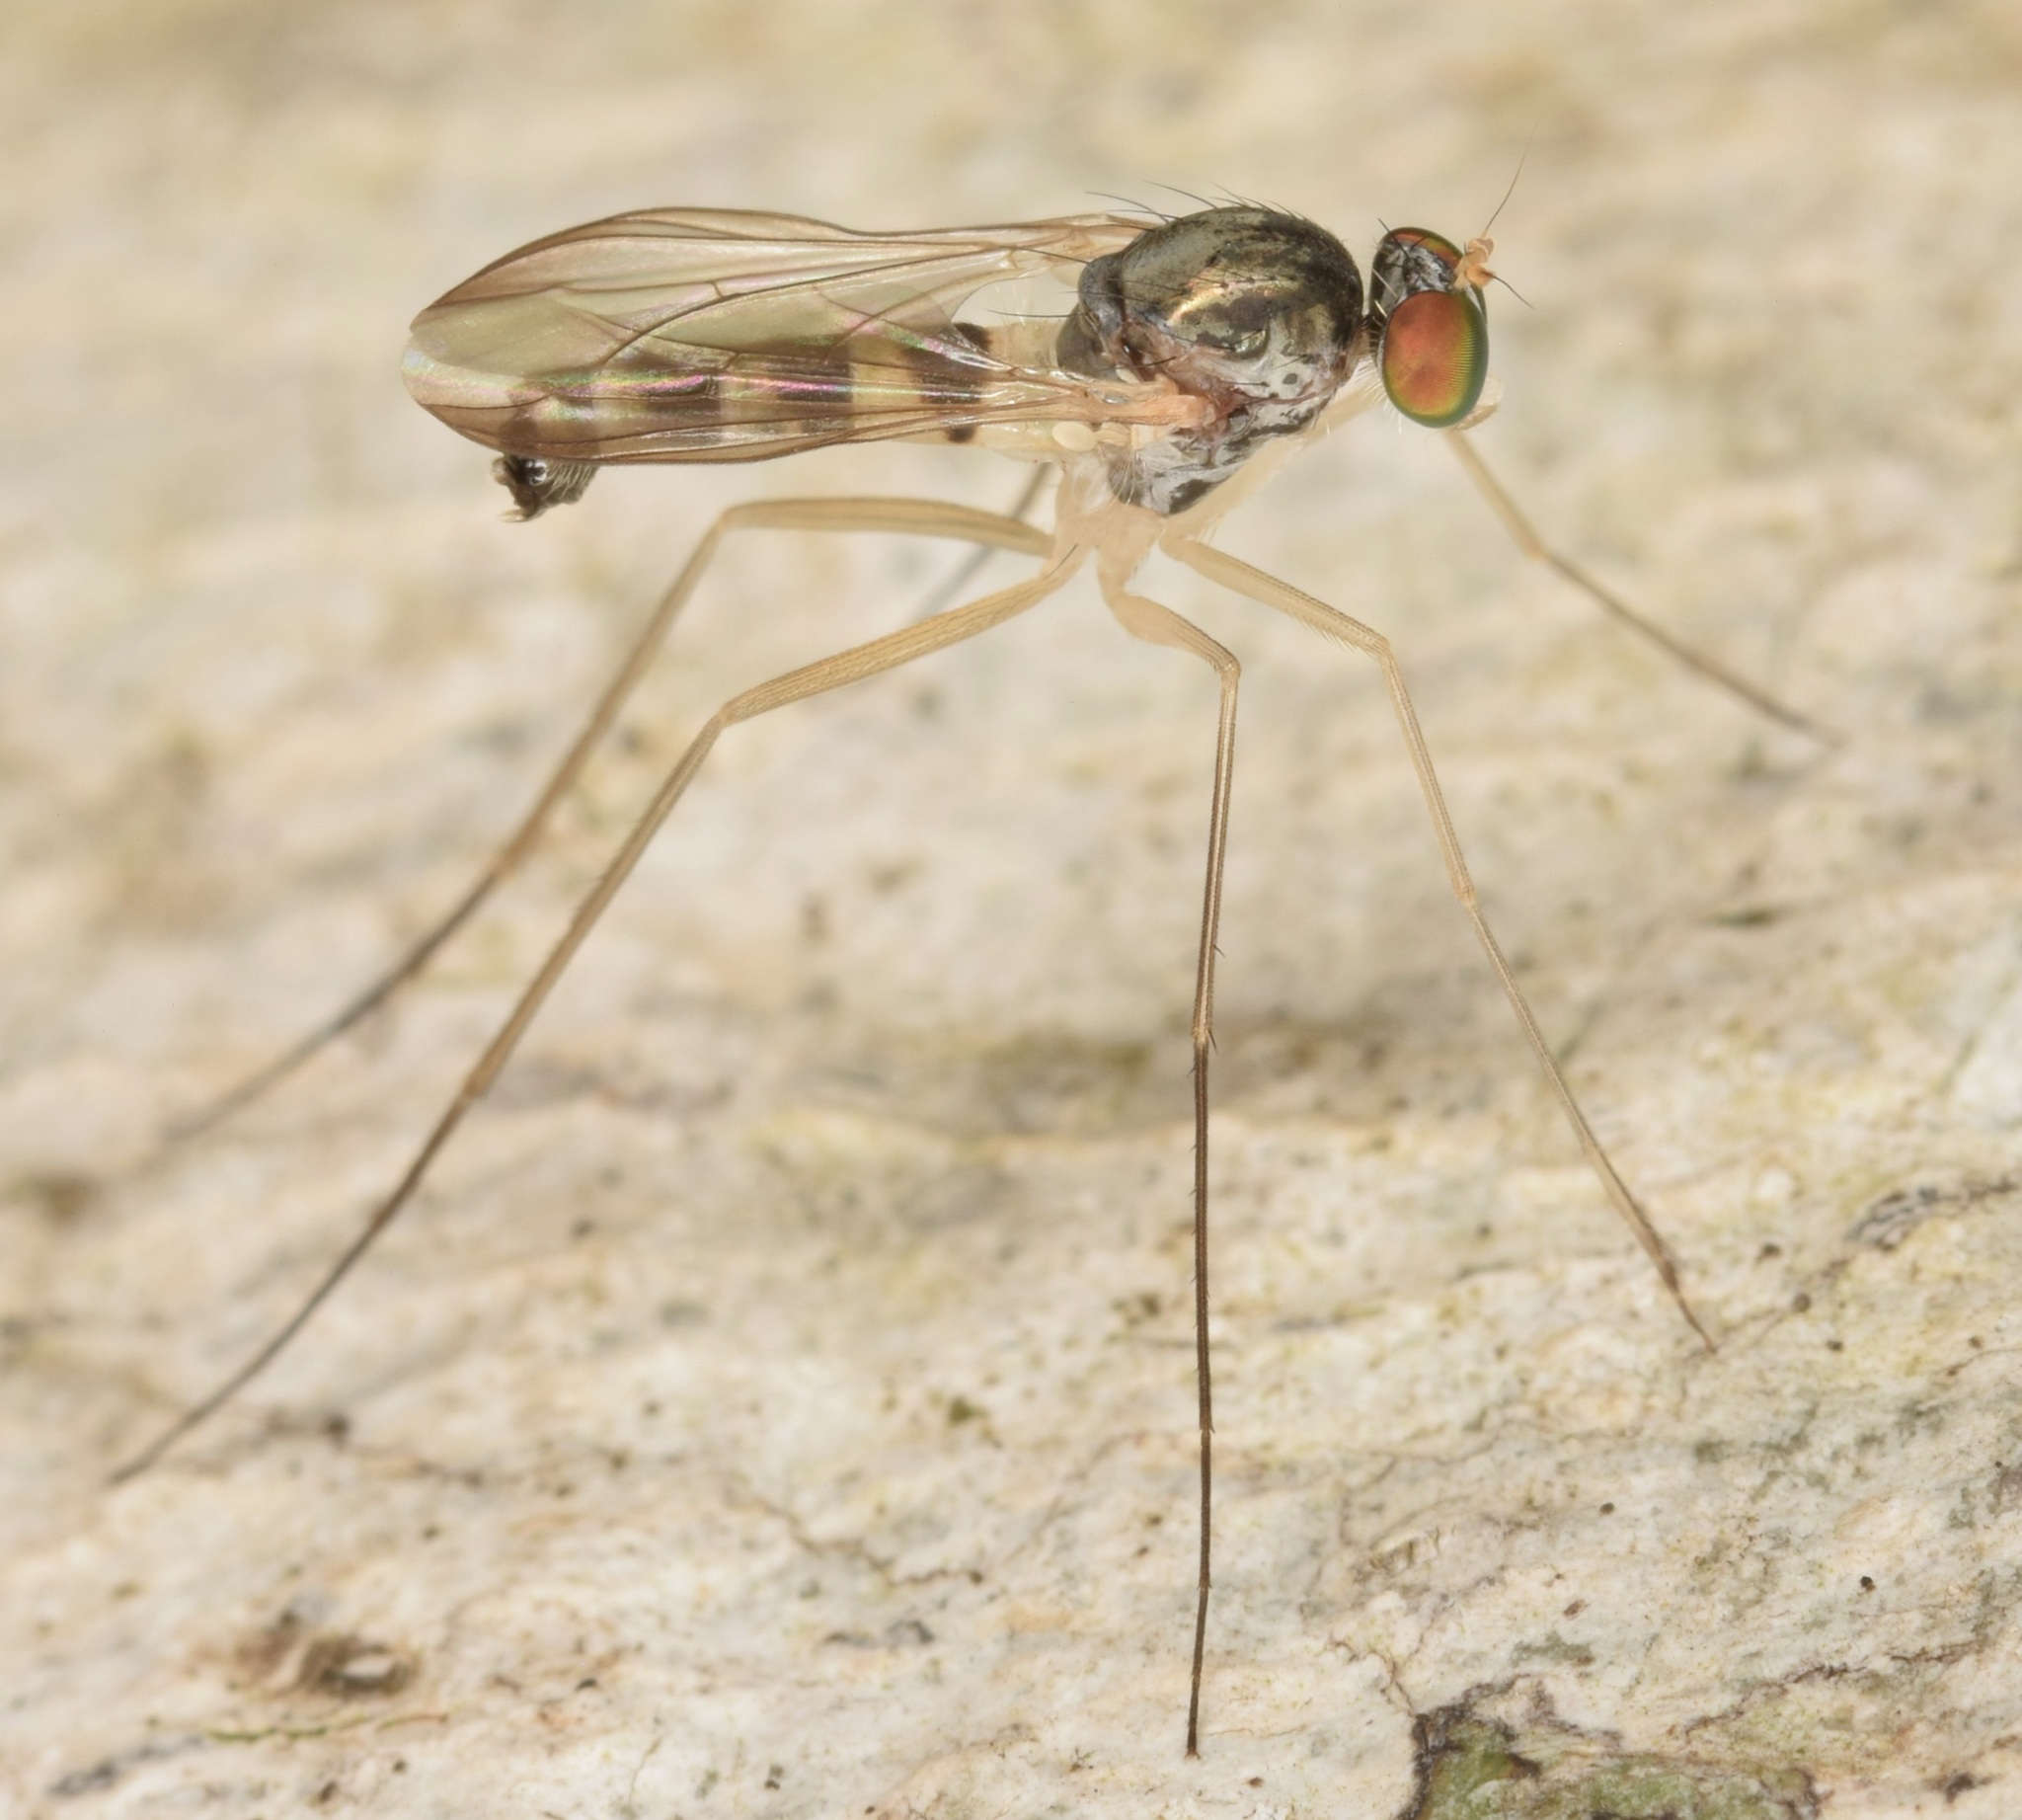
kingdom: Animalia
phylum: Arthropoda
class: Insecta
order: Diptera
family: Dolichopodidae
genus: Neurigona
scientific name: Neurigona deformis
